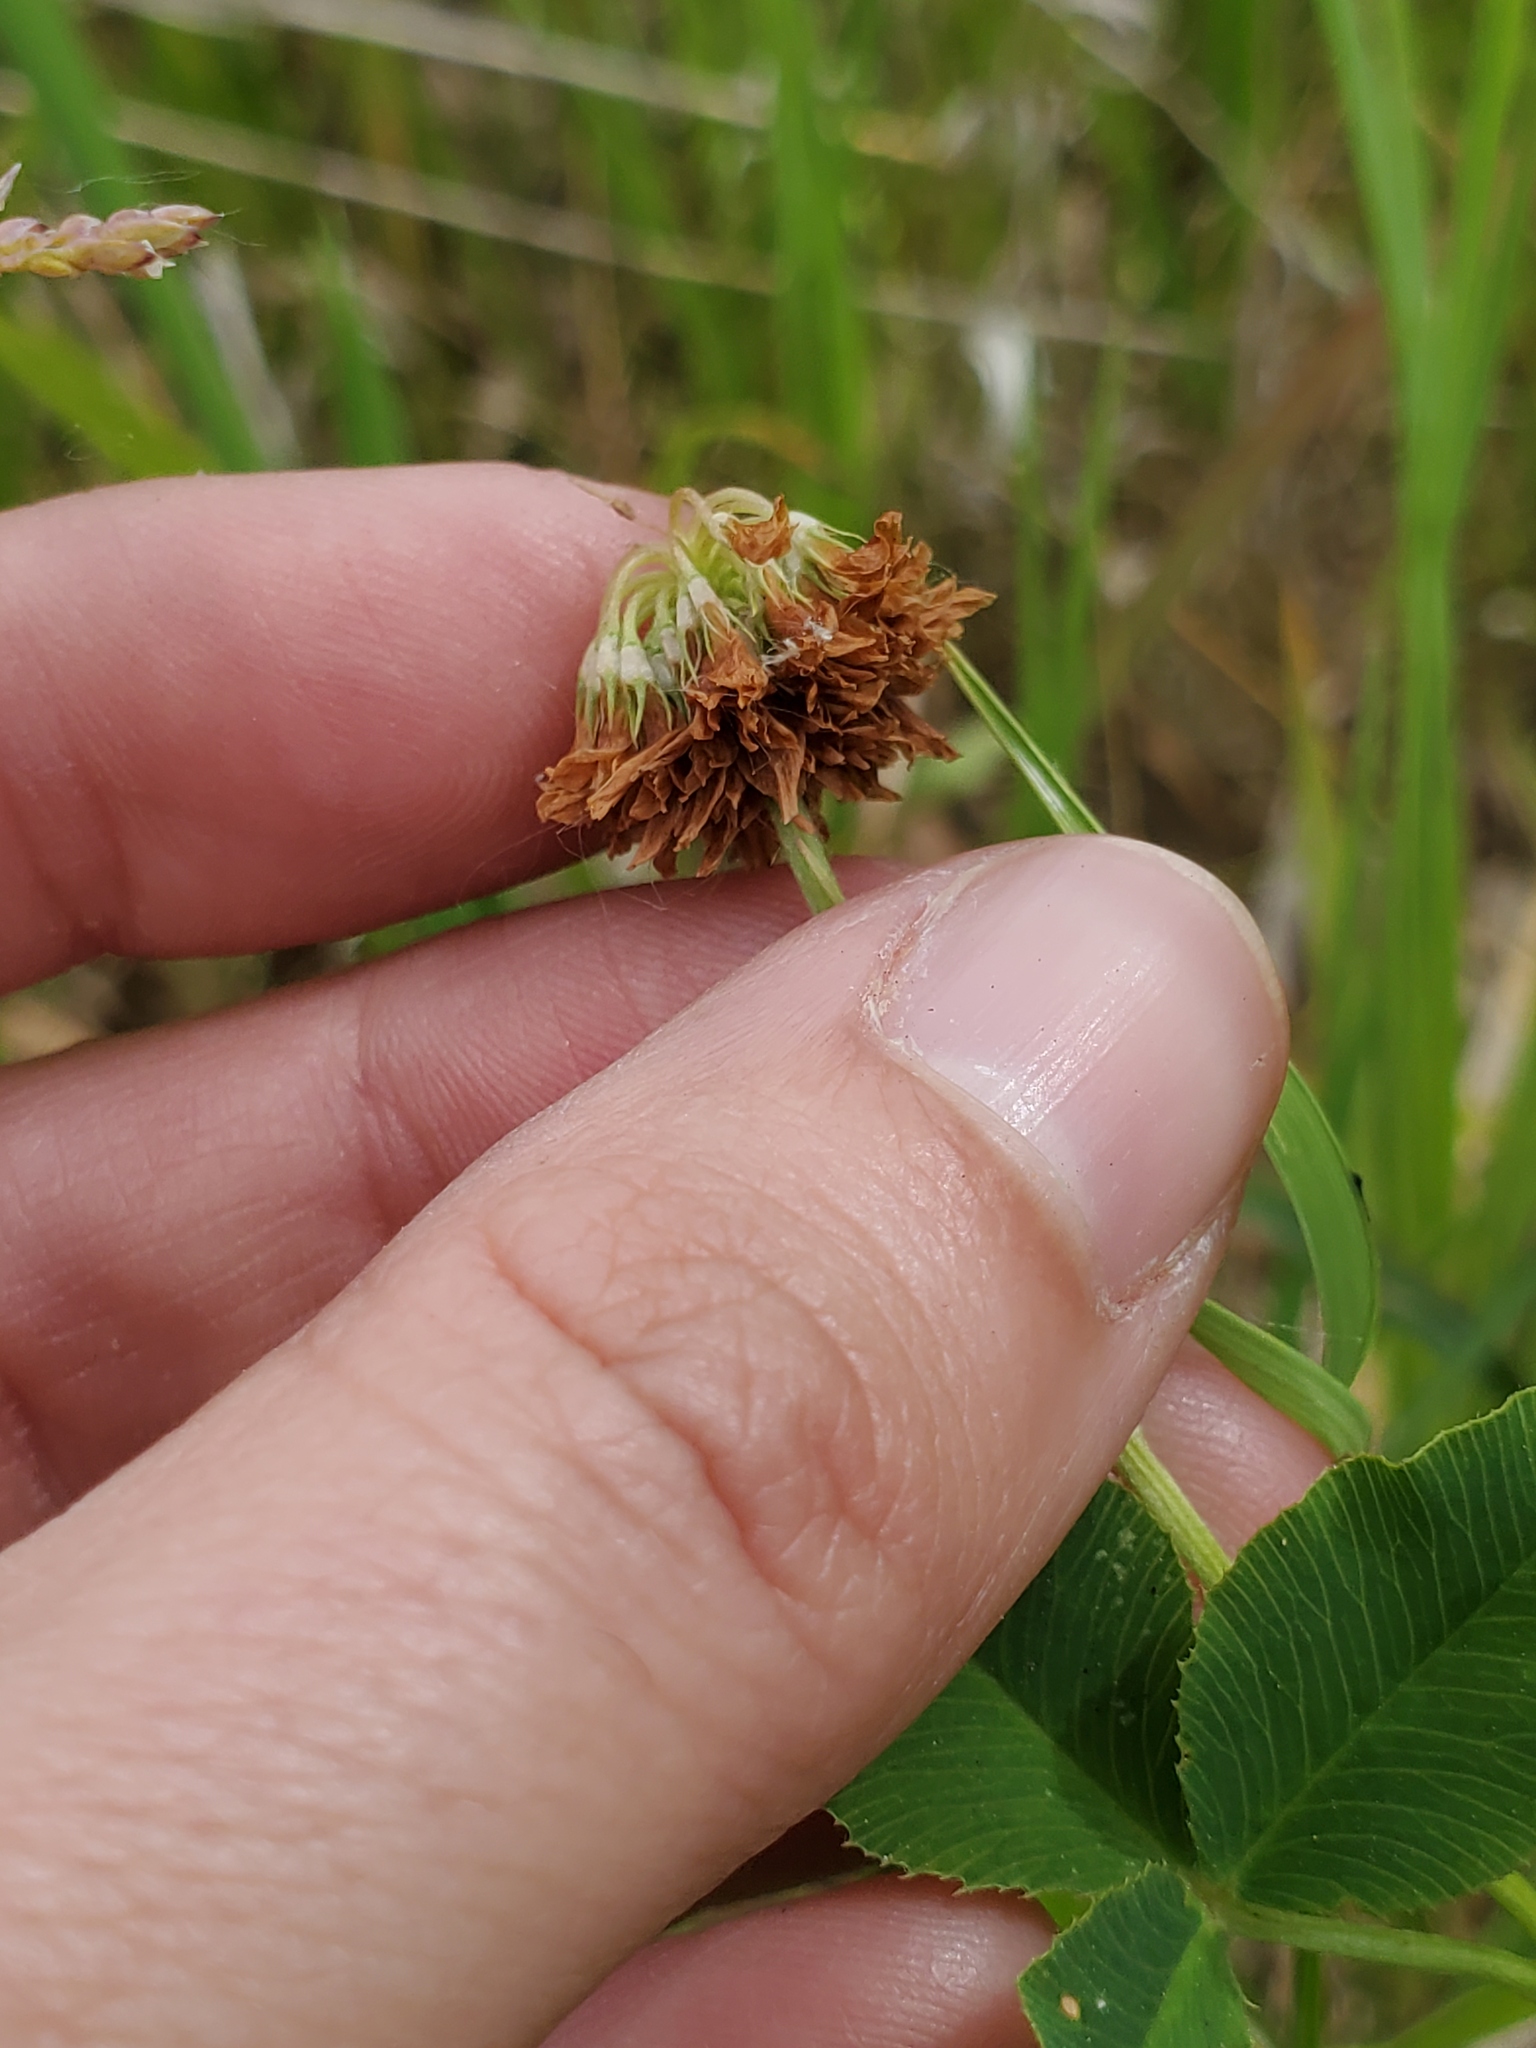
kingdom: Plantae
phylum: Tracheophyta
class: Magnoliopsida
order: Fabales
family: Fabaceae
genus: Trifolium
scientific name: Trifolium hybridum
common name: Alsike clover
